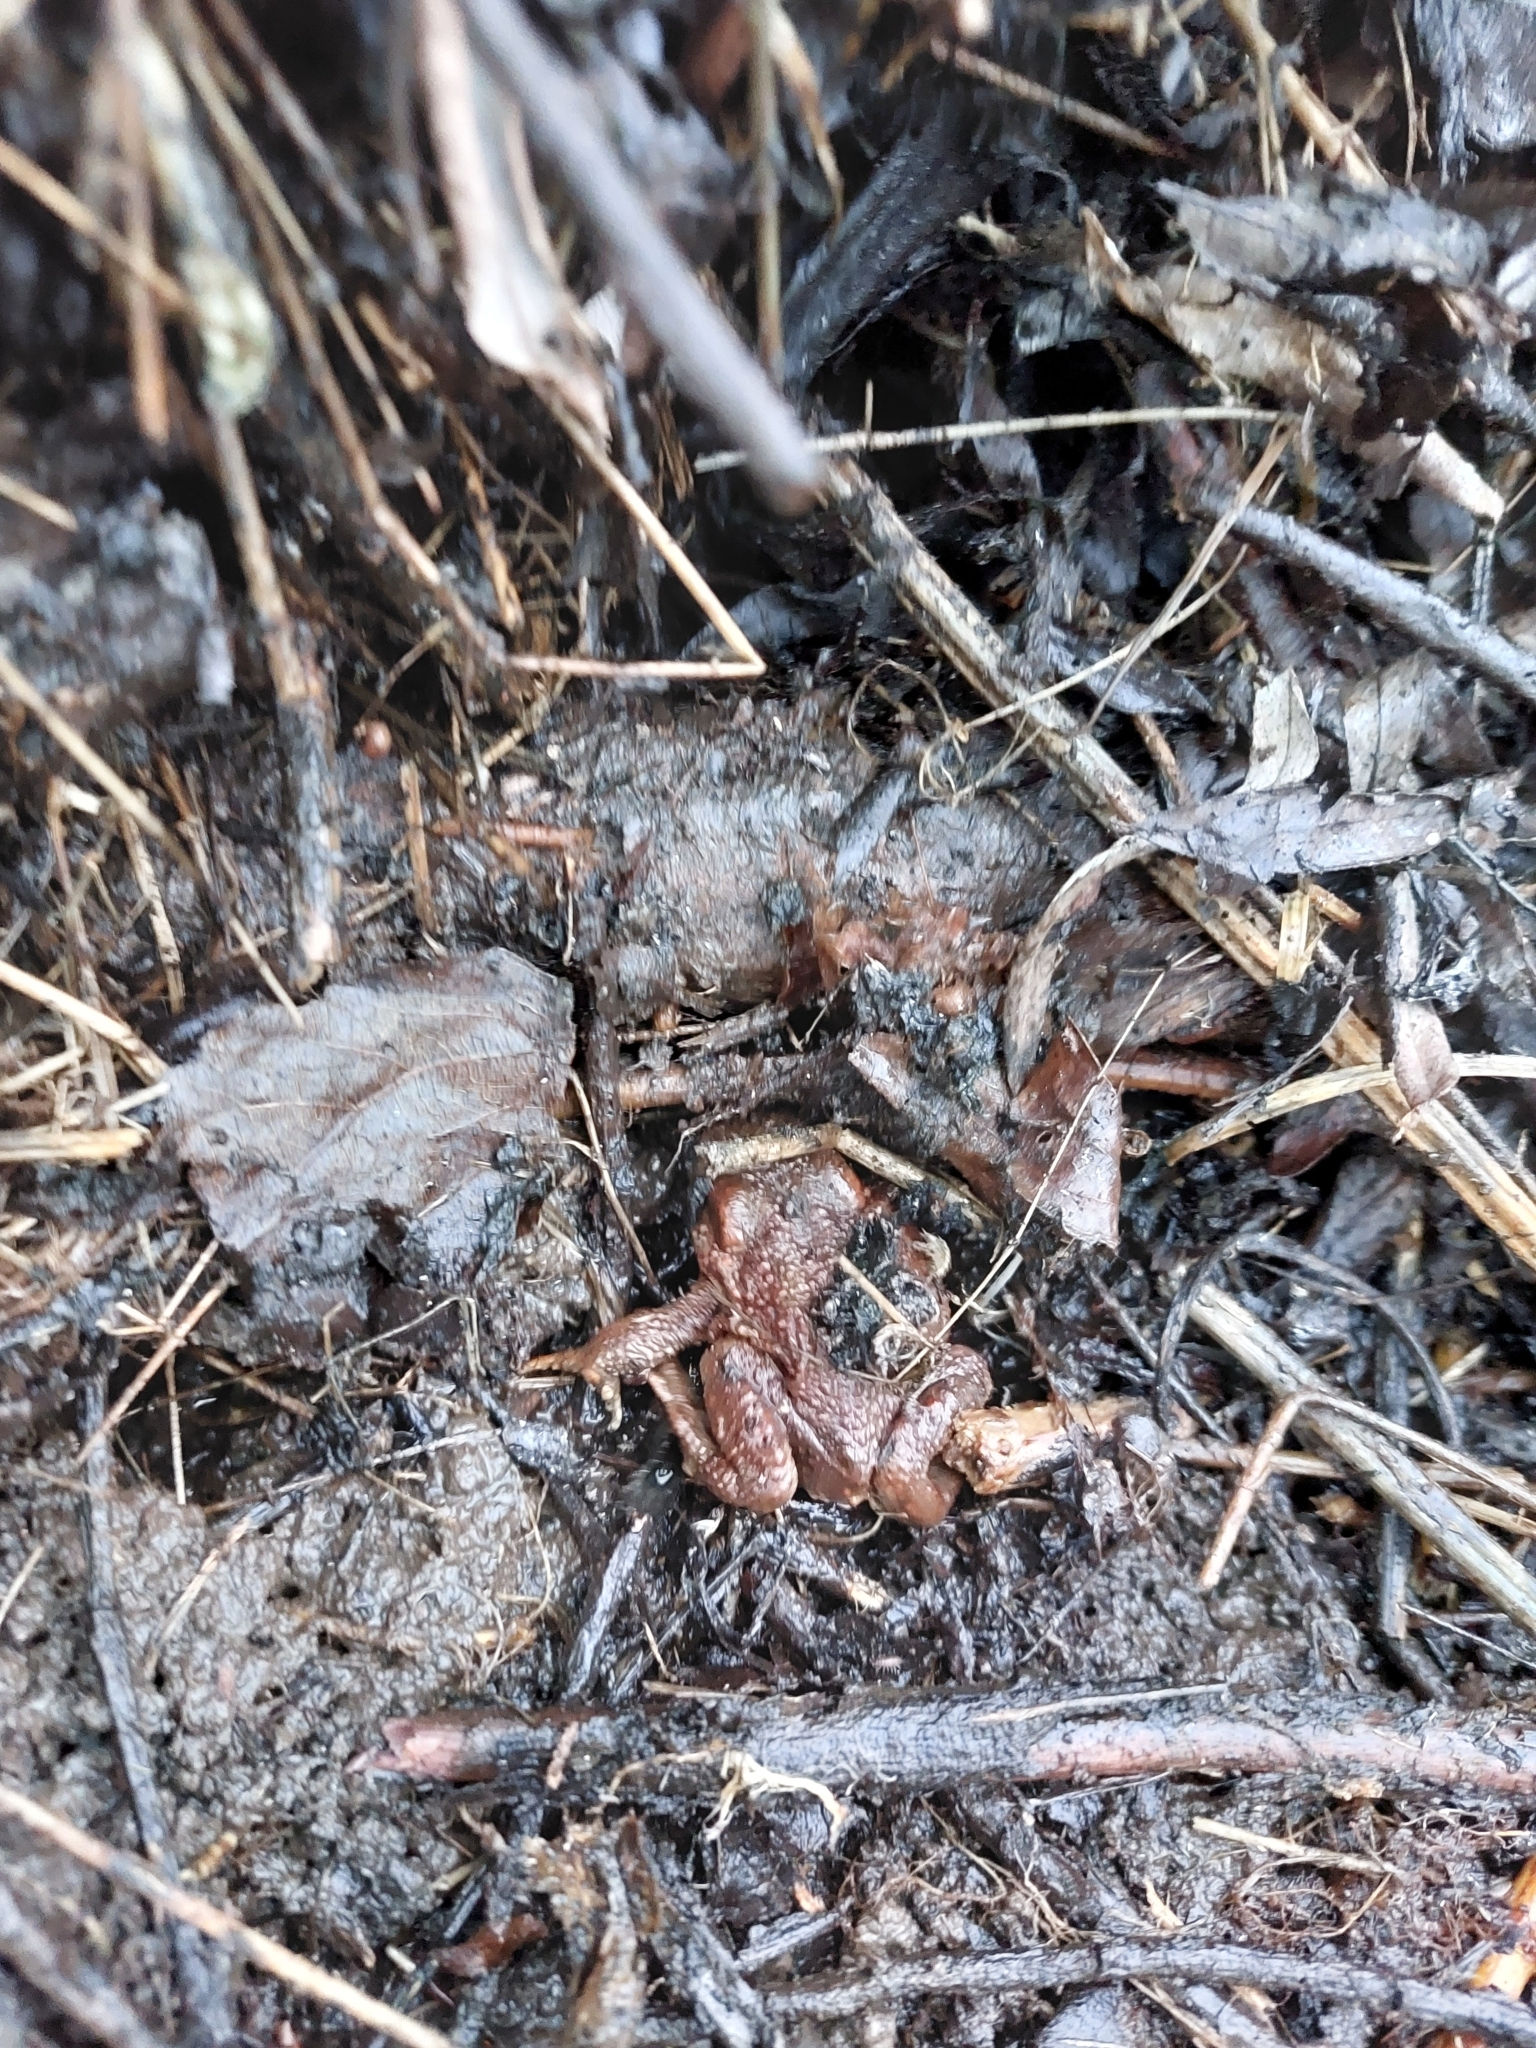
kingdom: Animalia
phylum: Chordata
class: Amphibia
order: Anura
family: Bufonidae
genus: Bufo
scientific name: Bufo bufo
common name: Common toad
